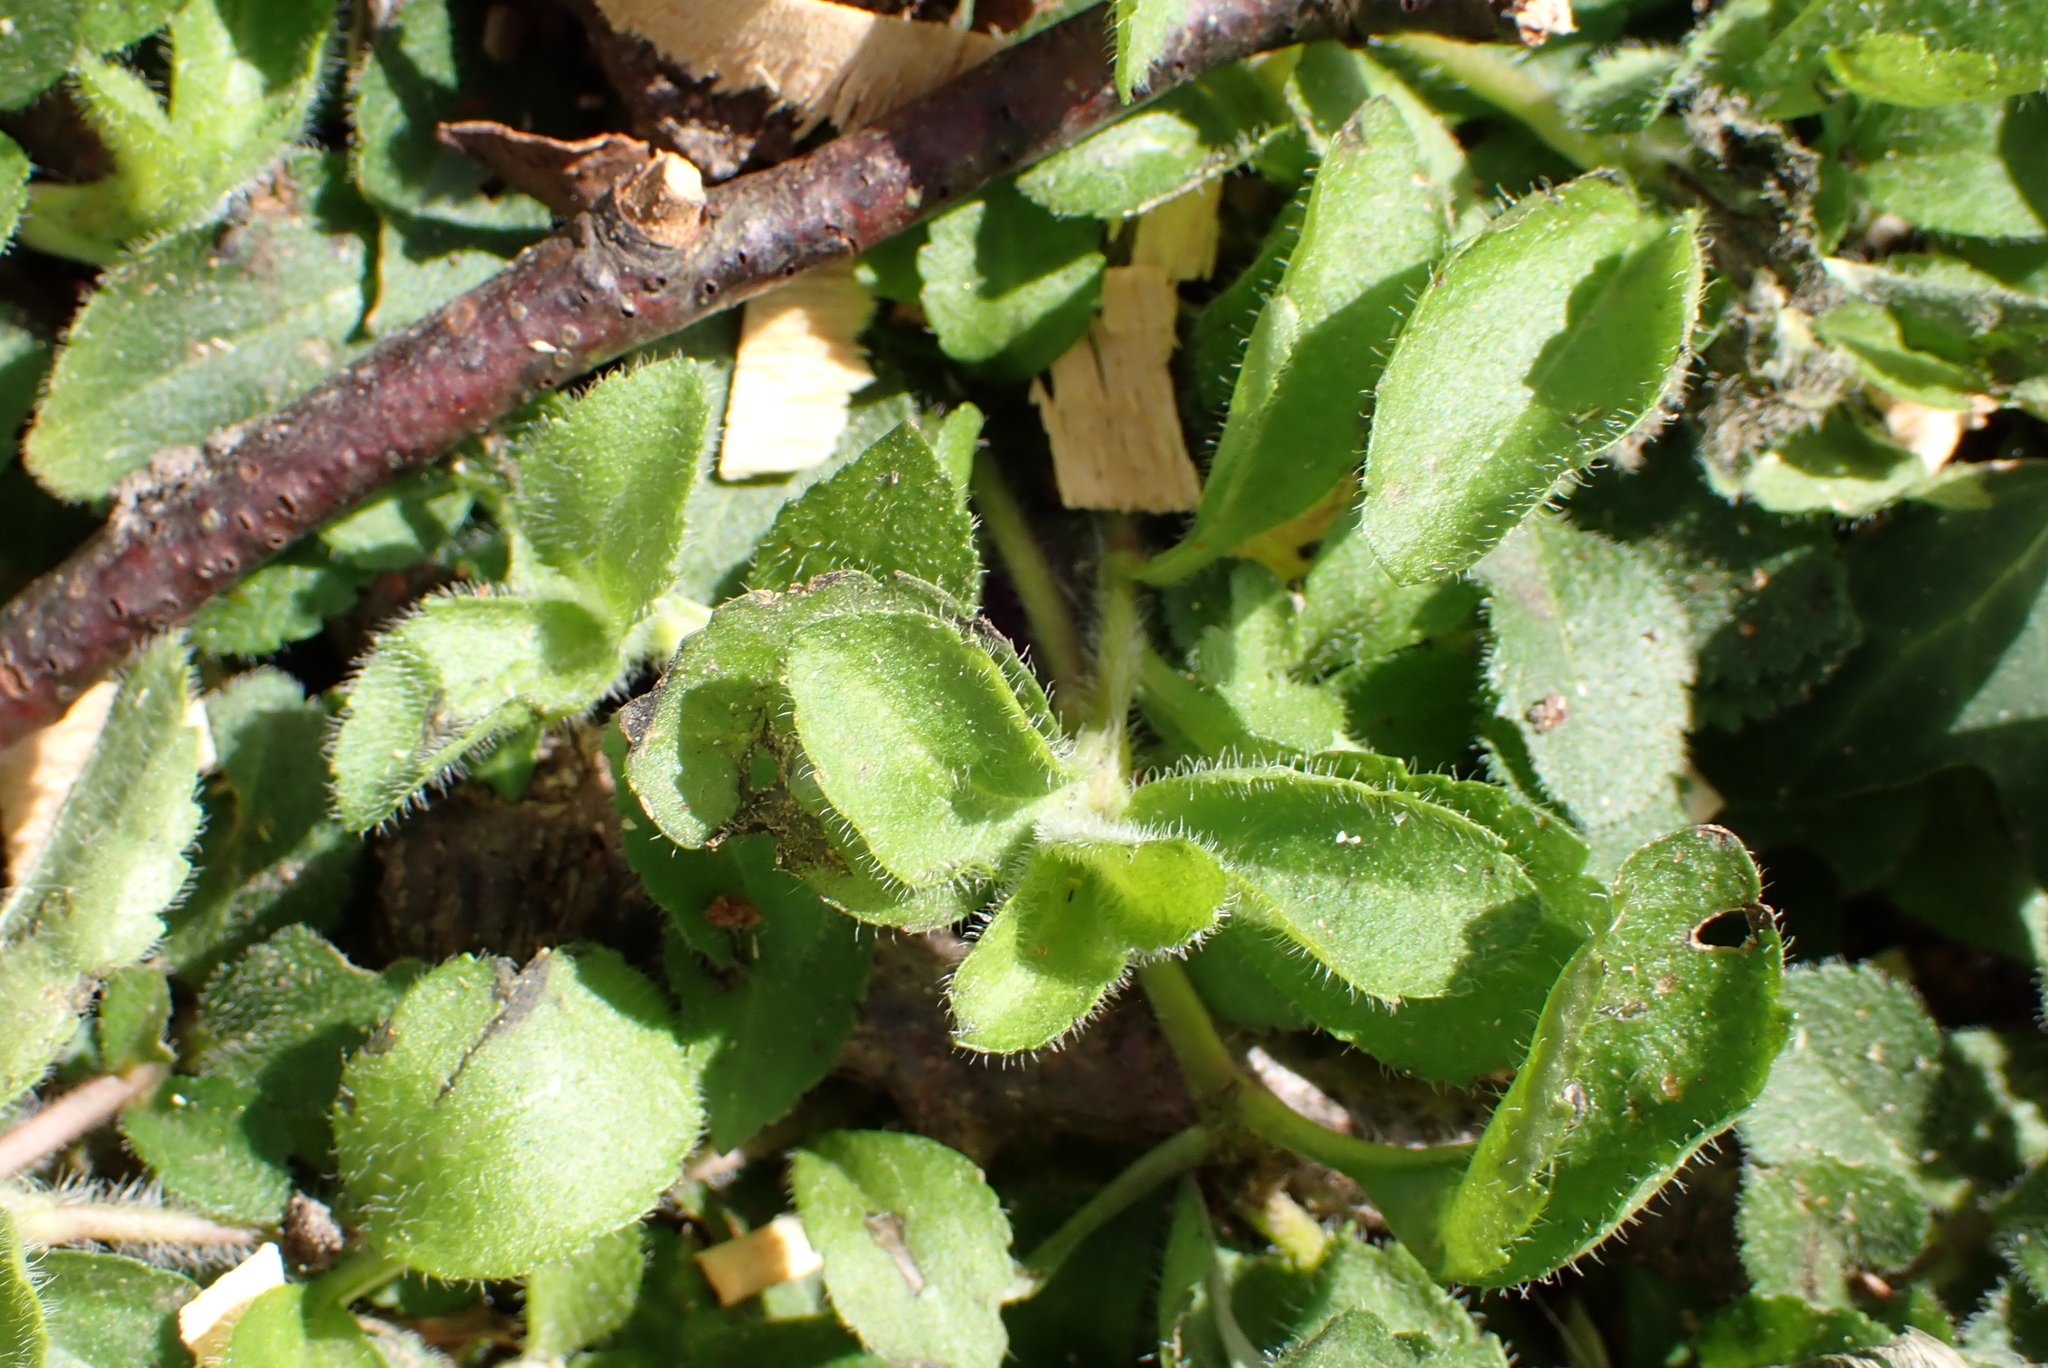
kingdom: Plantae
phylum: Tracheophyta
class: Magnoliopsida
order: Lamiales
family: Plantaginaceae
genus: Veronica
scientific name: Veronica officinalis
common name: Common speedwell
